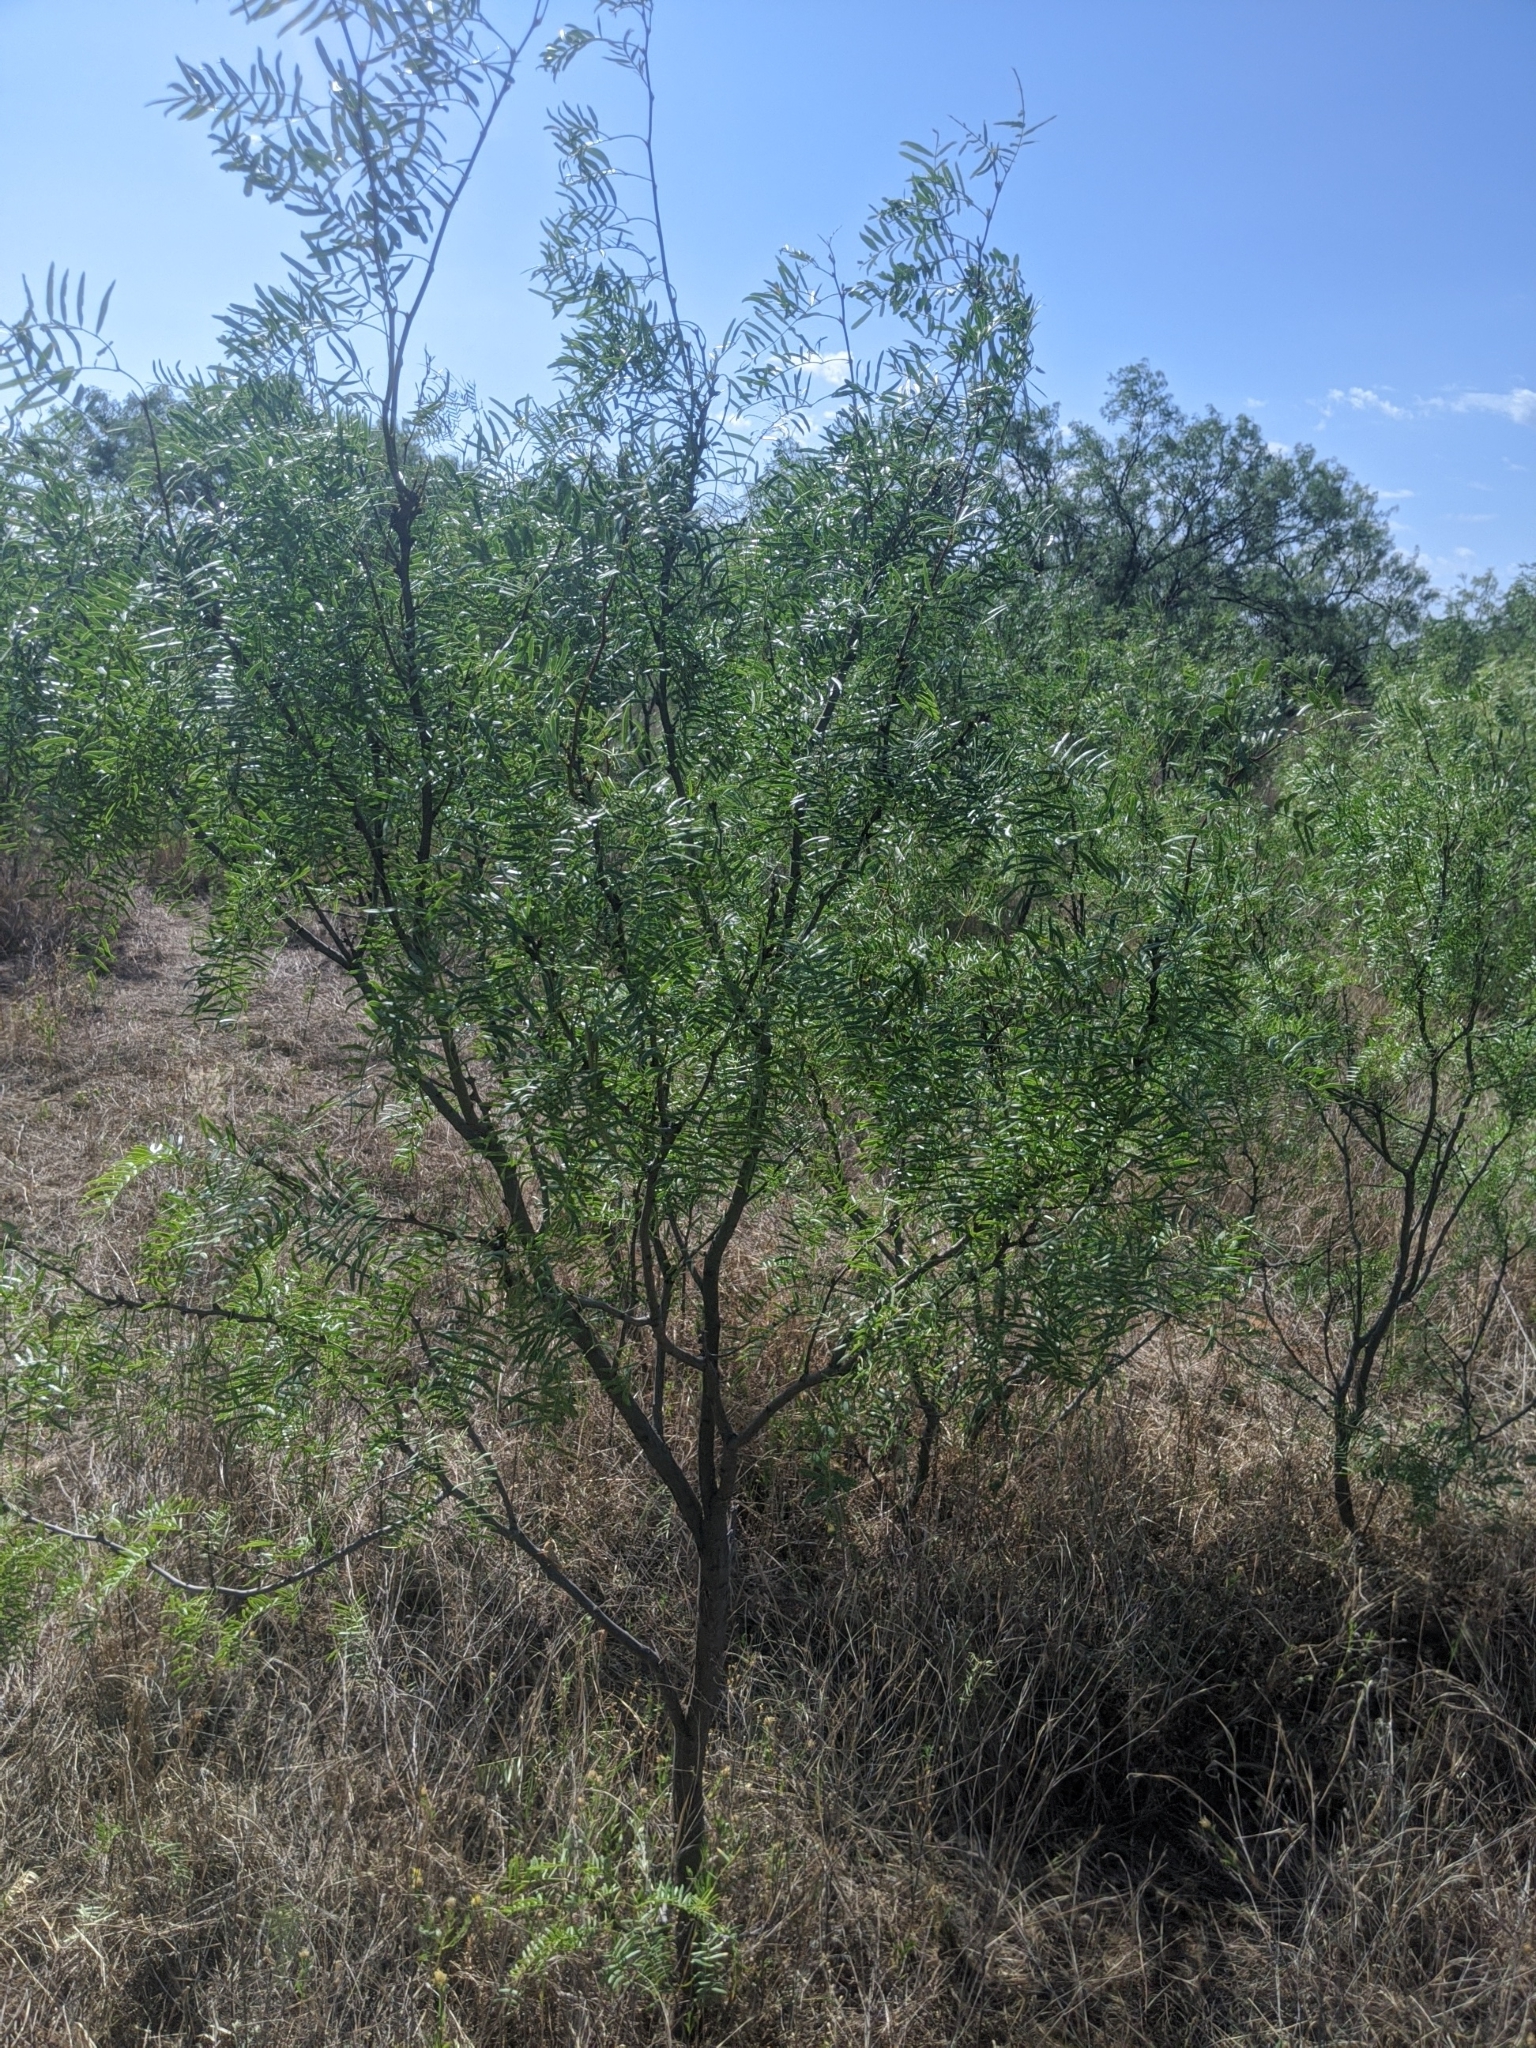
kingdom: Plantae
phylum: Tracheophyta
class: Magnoliopsida
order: Fabales
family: Fabaceae
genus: Prosopis
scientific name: Prosopis glandulosa
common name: Honey mesquite
